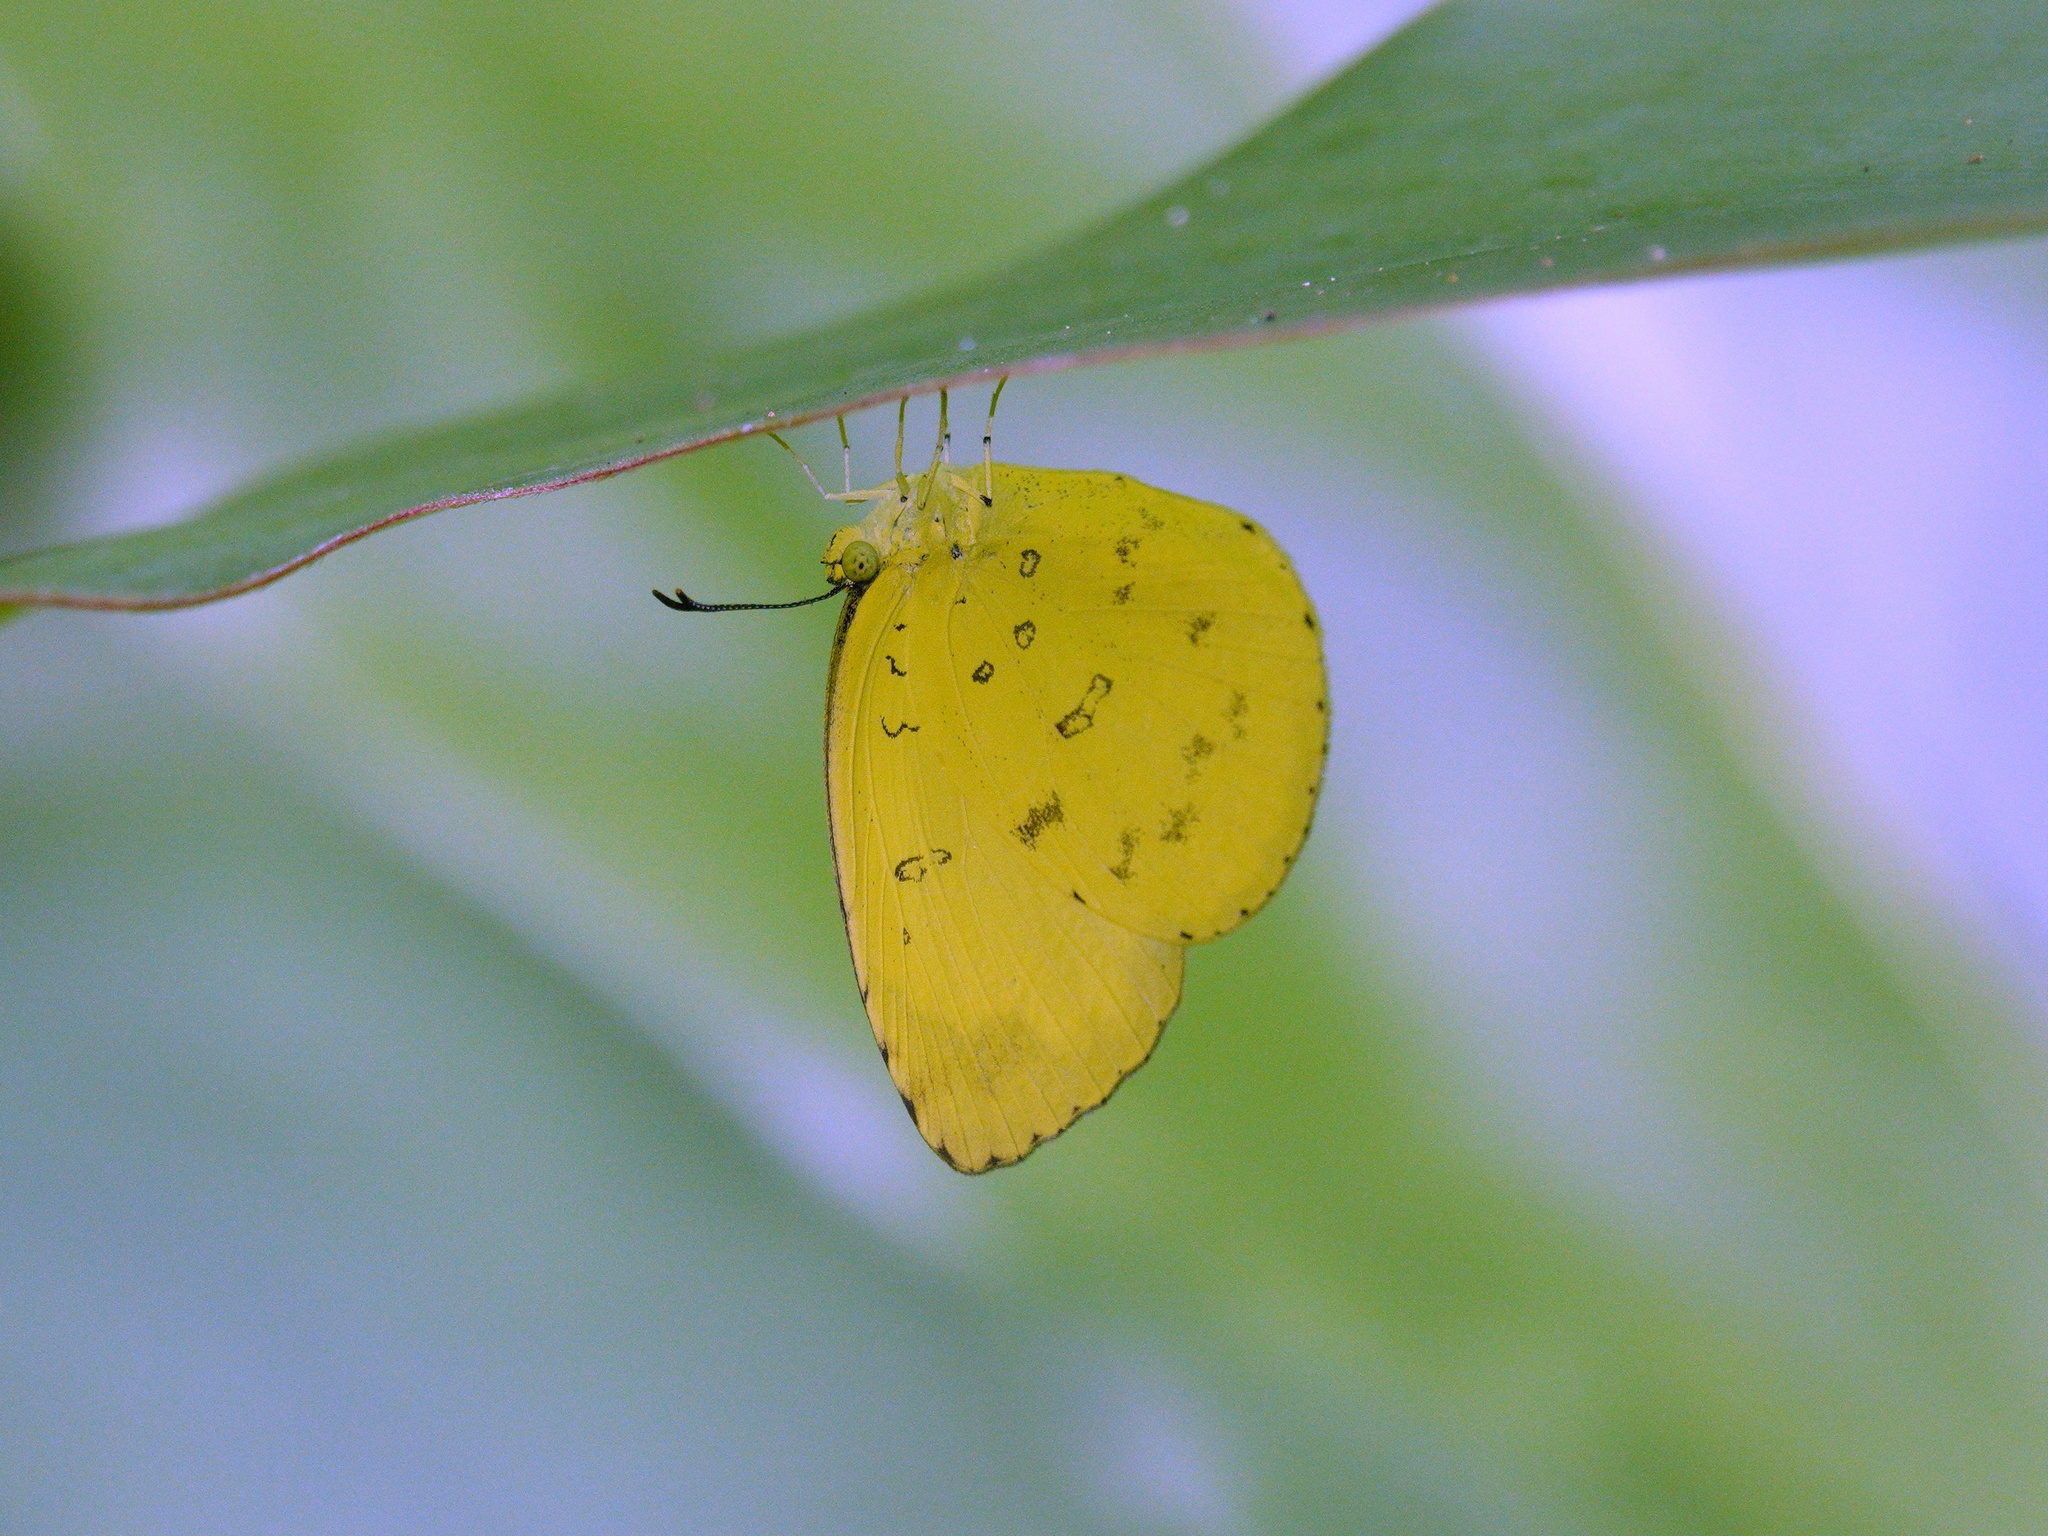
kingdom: Animalia
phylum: Arthropoda
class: Insecta
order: Lepidoptera
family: Pieridae
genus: Eurema
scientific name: Eurema blanda
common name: Three-spot grass yellow
